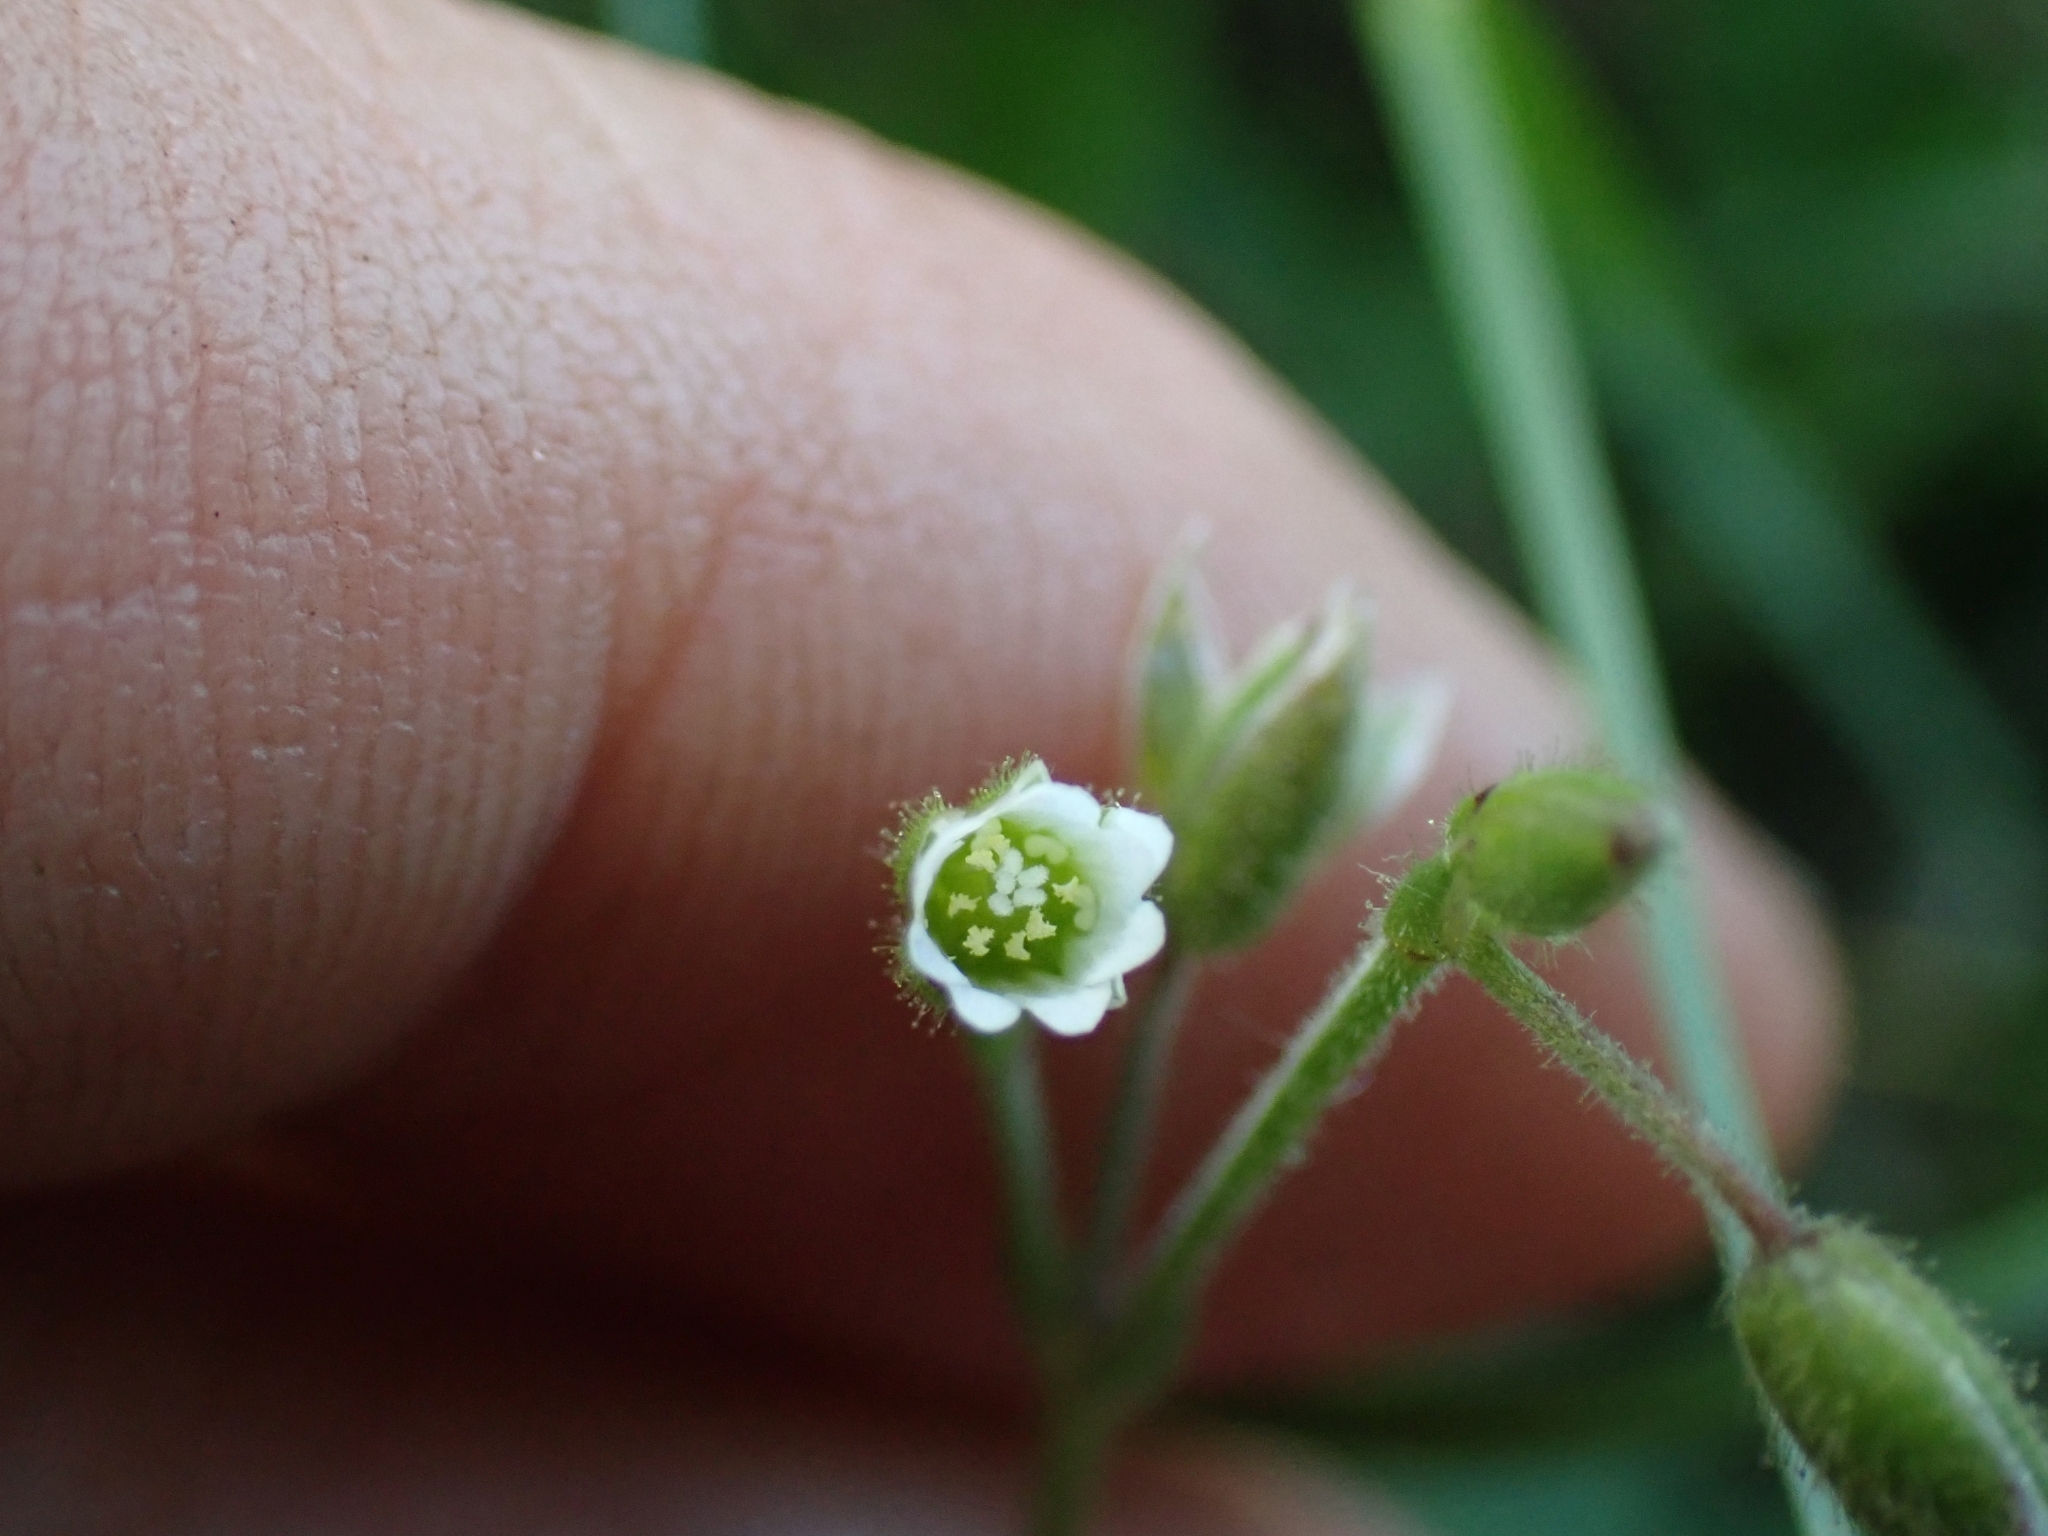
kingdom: Plantae
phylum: Tracheophyta
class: Magnoliopsida
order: Caryophyllales
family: Caryophyllaceae
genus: Cerastium
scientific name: Cerastium fontanum
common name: Common mouse-ear
